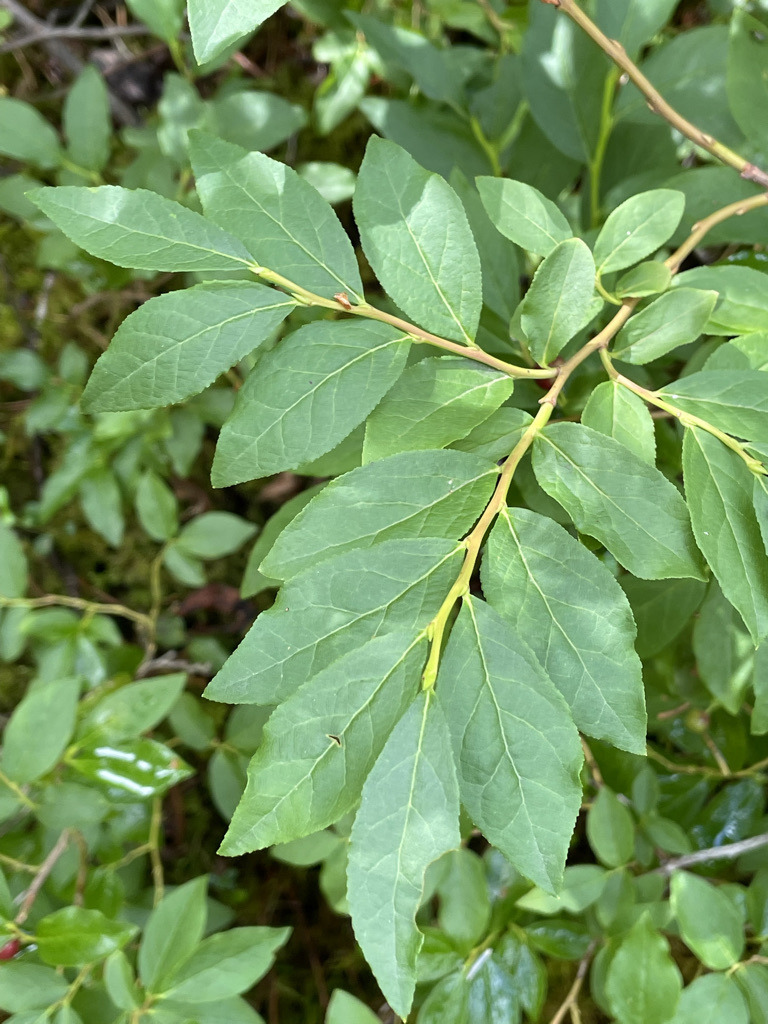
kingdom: Plantae
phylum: Tracheophyta
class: Magnoliopsida
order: Ericales
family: Ericaceae
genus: Vaccinium
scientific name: Vaccinium membranaceum
